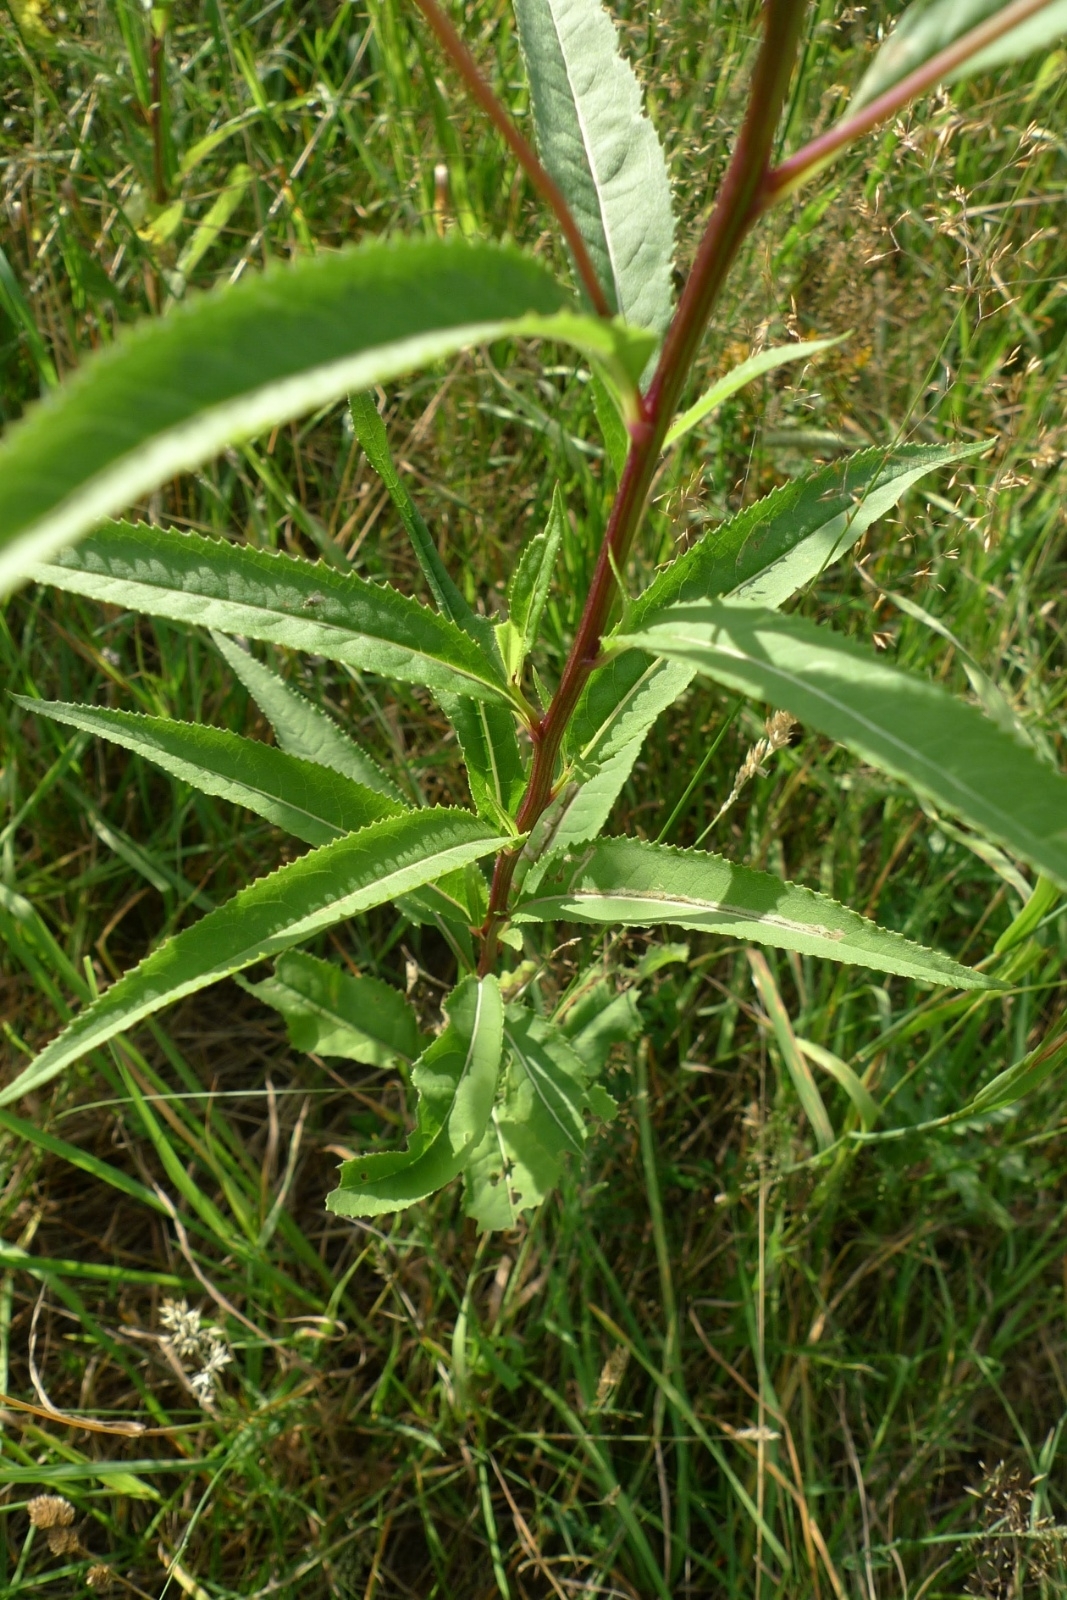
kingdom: Plantae
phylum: Tracheophyta
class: Magnoliopsida
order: Asterales
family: Asteraceae
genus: Senecio
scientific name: Senecio ovatus
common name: Wood ragwort
